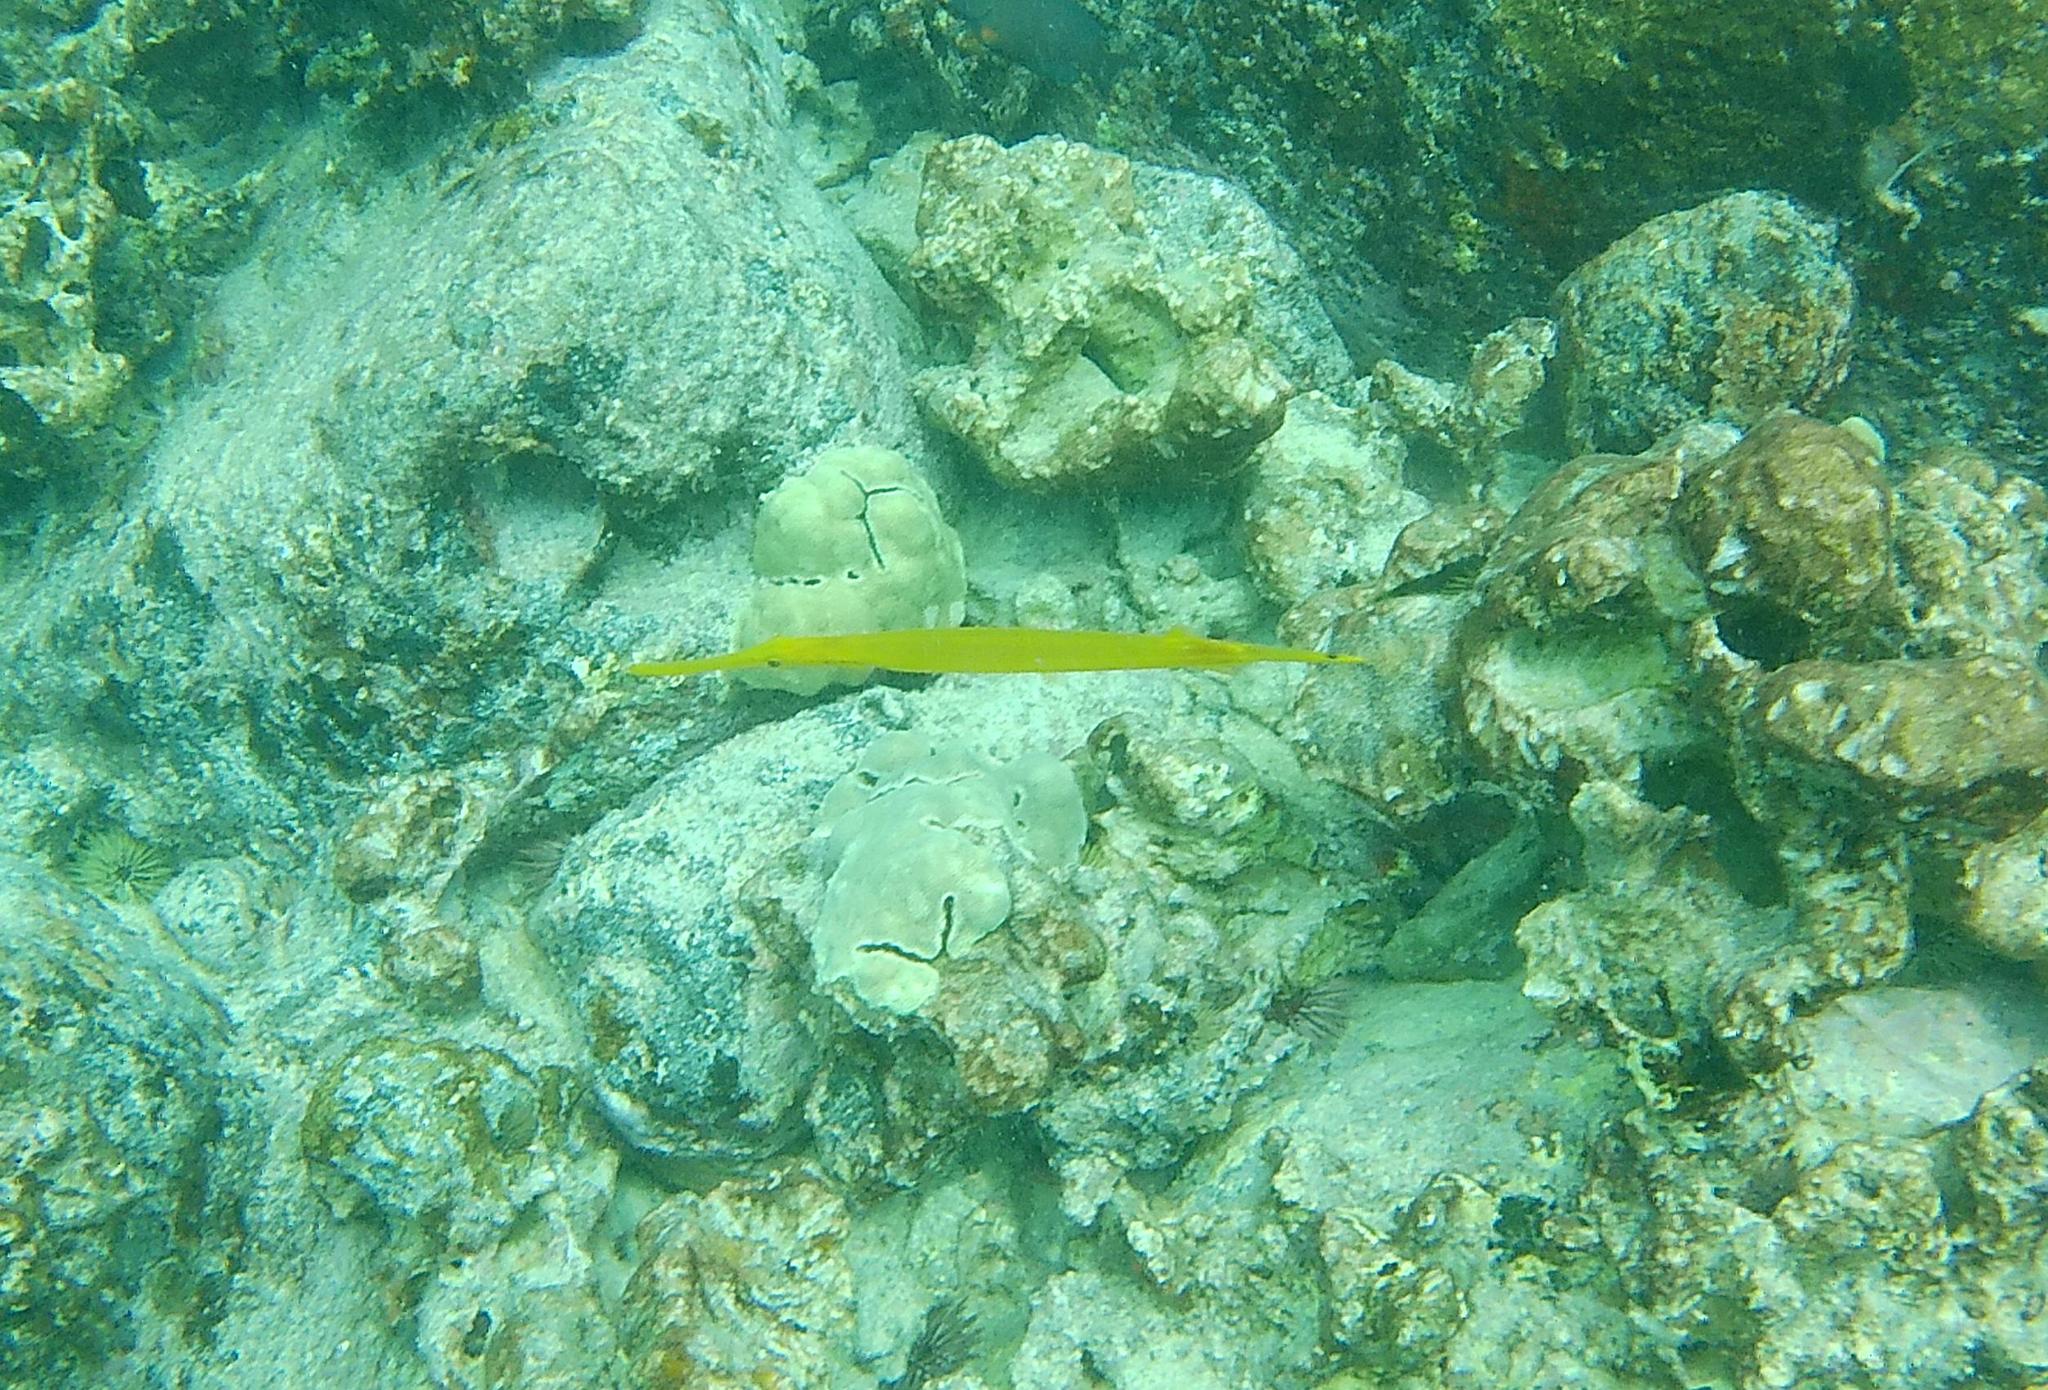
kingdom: Animalia
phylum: Chordata
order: Syngnathiformes
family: Aulostomidae
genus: Aulostomus
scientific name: Aulostomus chinensis
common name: Chinese trumpetfish
